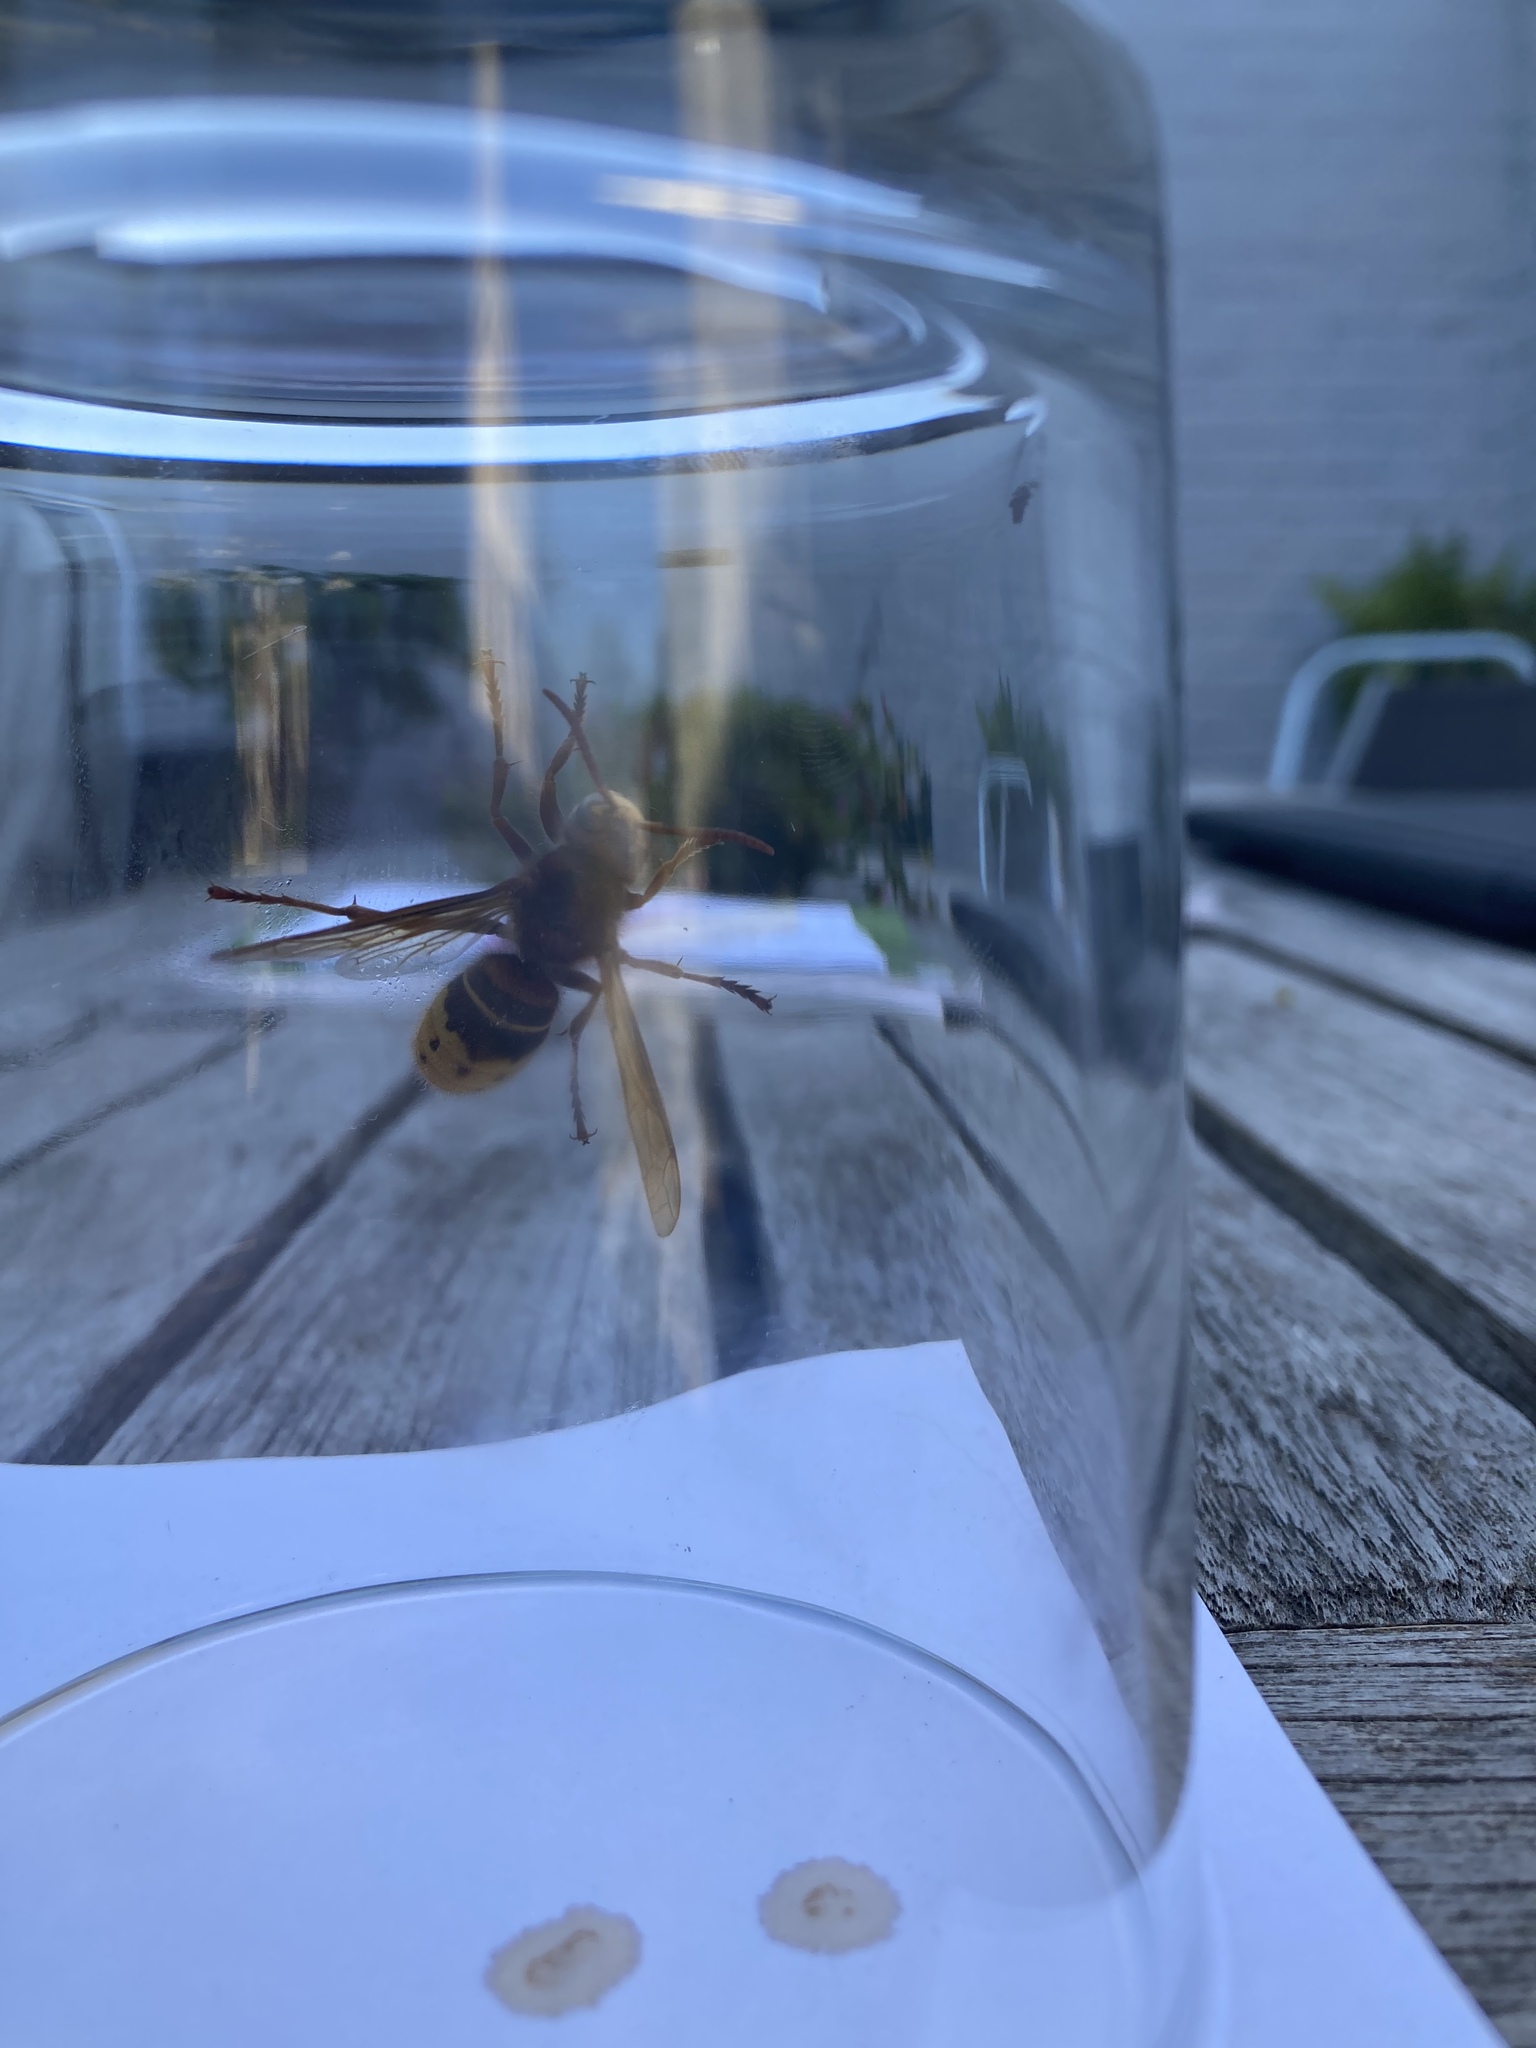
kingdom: Animalia
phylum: Arthropoda
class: Insecta
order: Hymenoptera
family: Vespidae
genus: Vespa
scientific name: Vespa crabro
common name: Hornet
